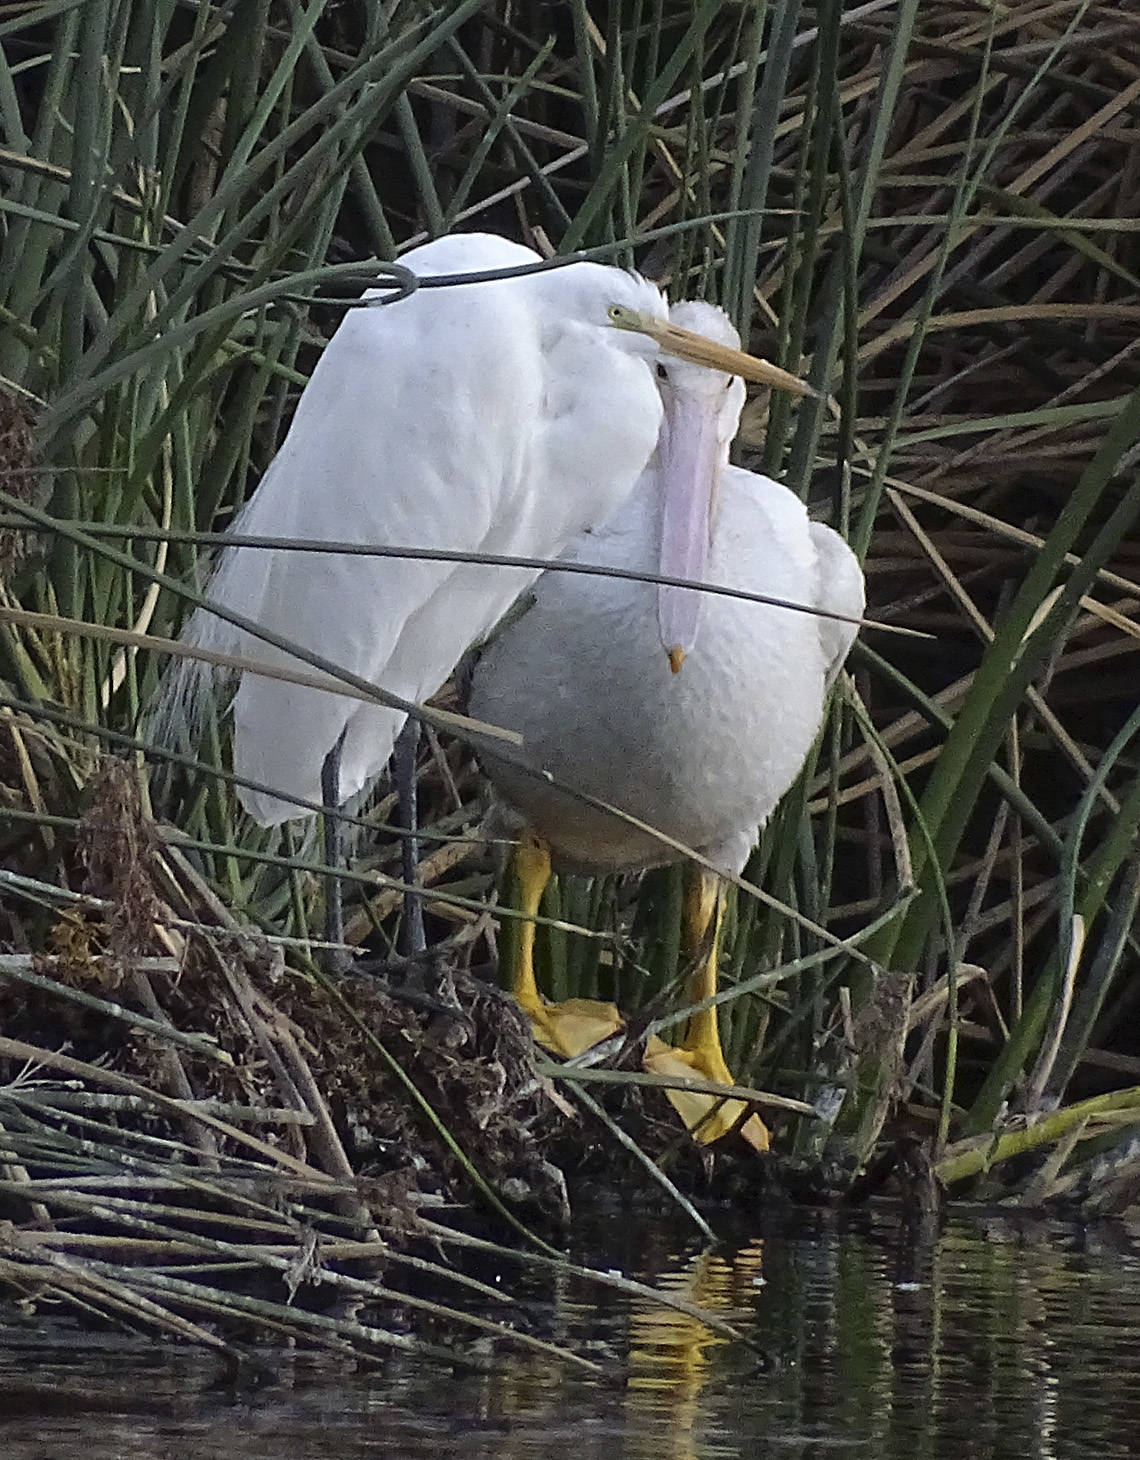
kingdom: Animalia
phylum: Chordata
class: Aves
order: Pelecaniformes
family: Pelecanidae
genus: Pelecanus
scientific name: Pelecanus erythrorhynchos
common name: American white pelican
